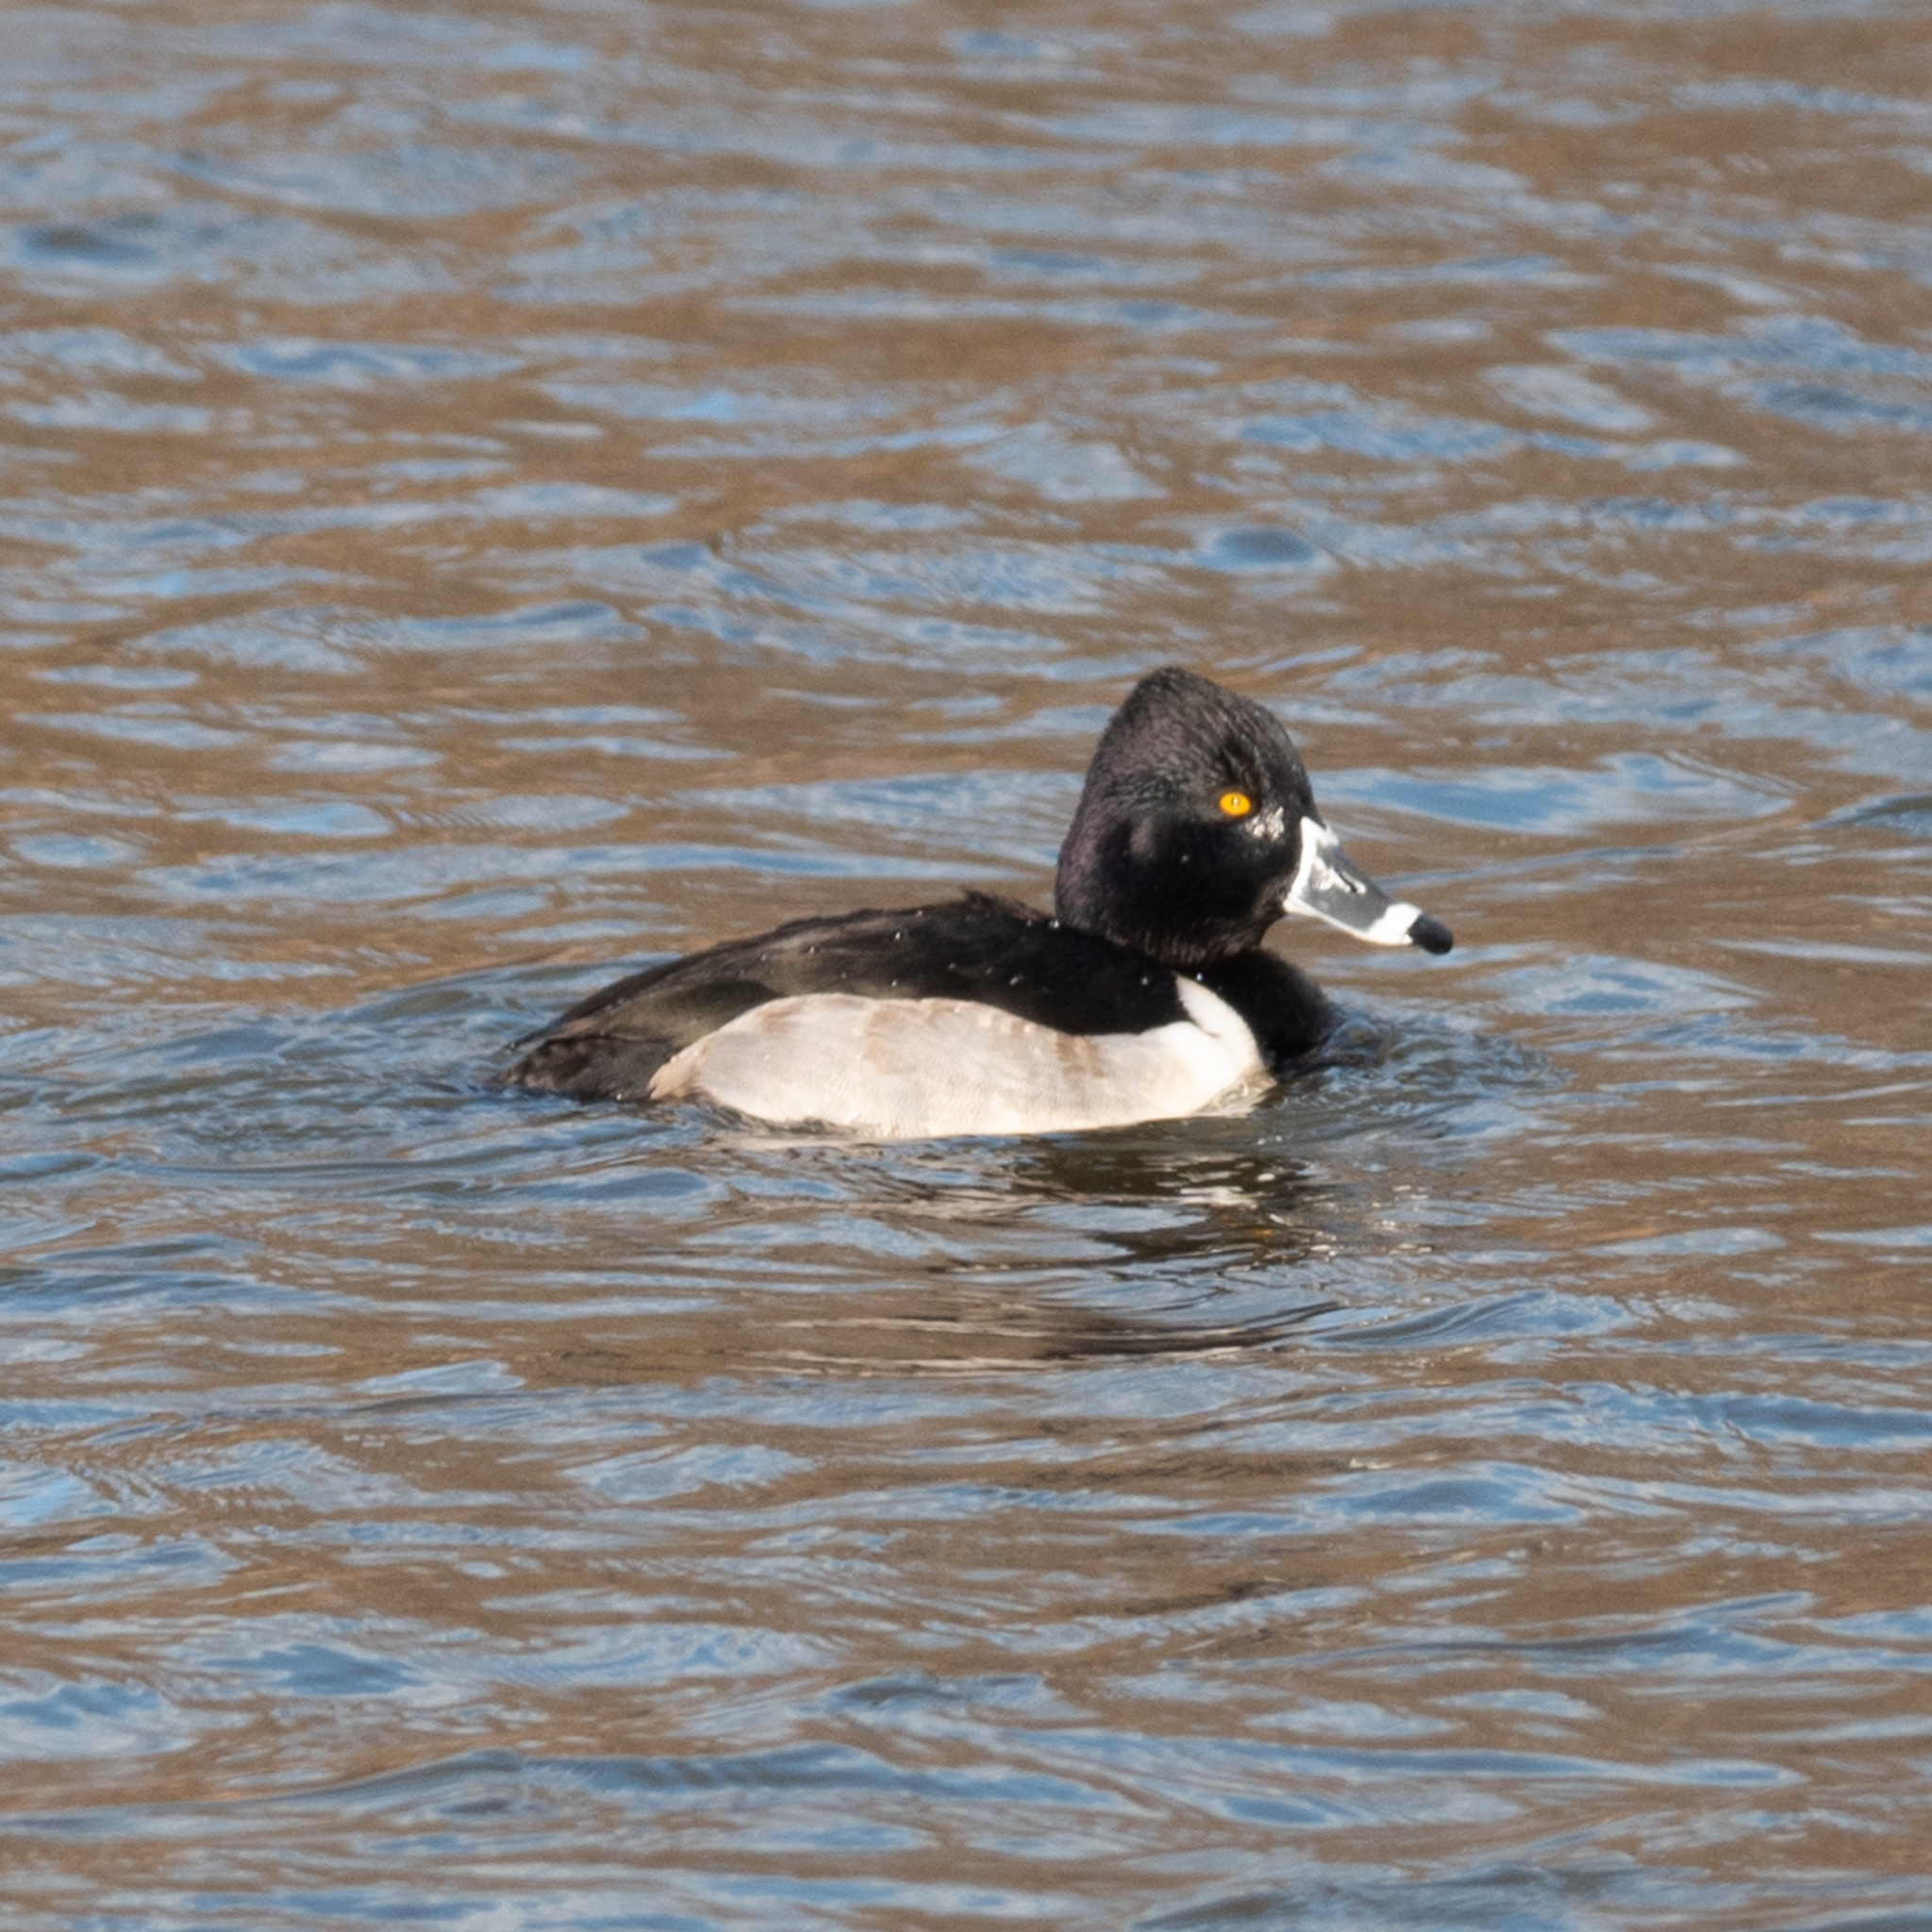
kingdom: Animalia
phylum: Chordata
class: Aves
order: Anseriformes
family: Anatidae
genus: Aythya
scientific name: Aythya collaris
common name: Ring-necked duck
